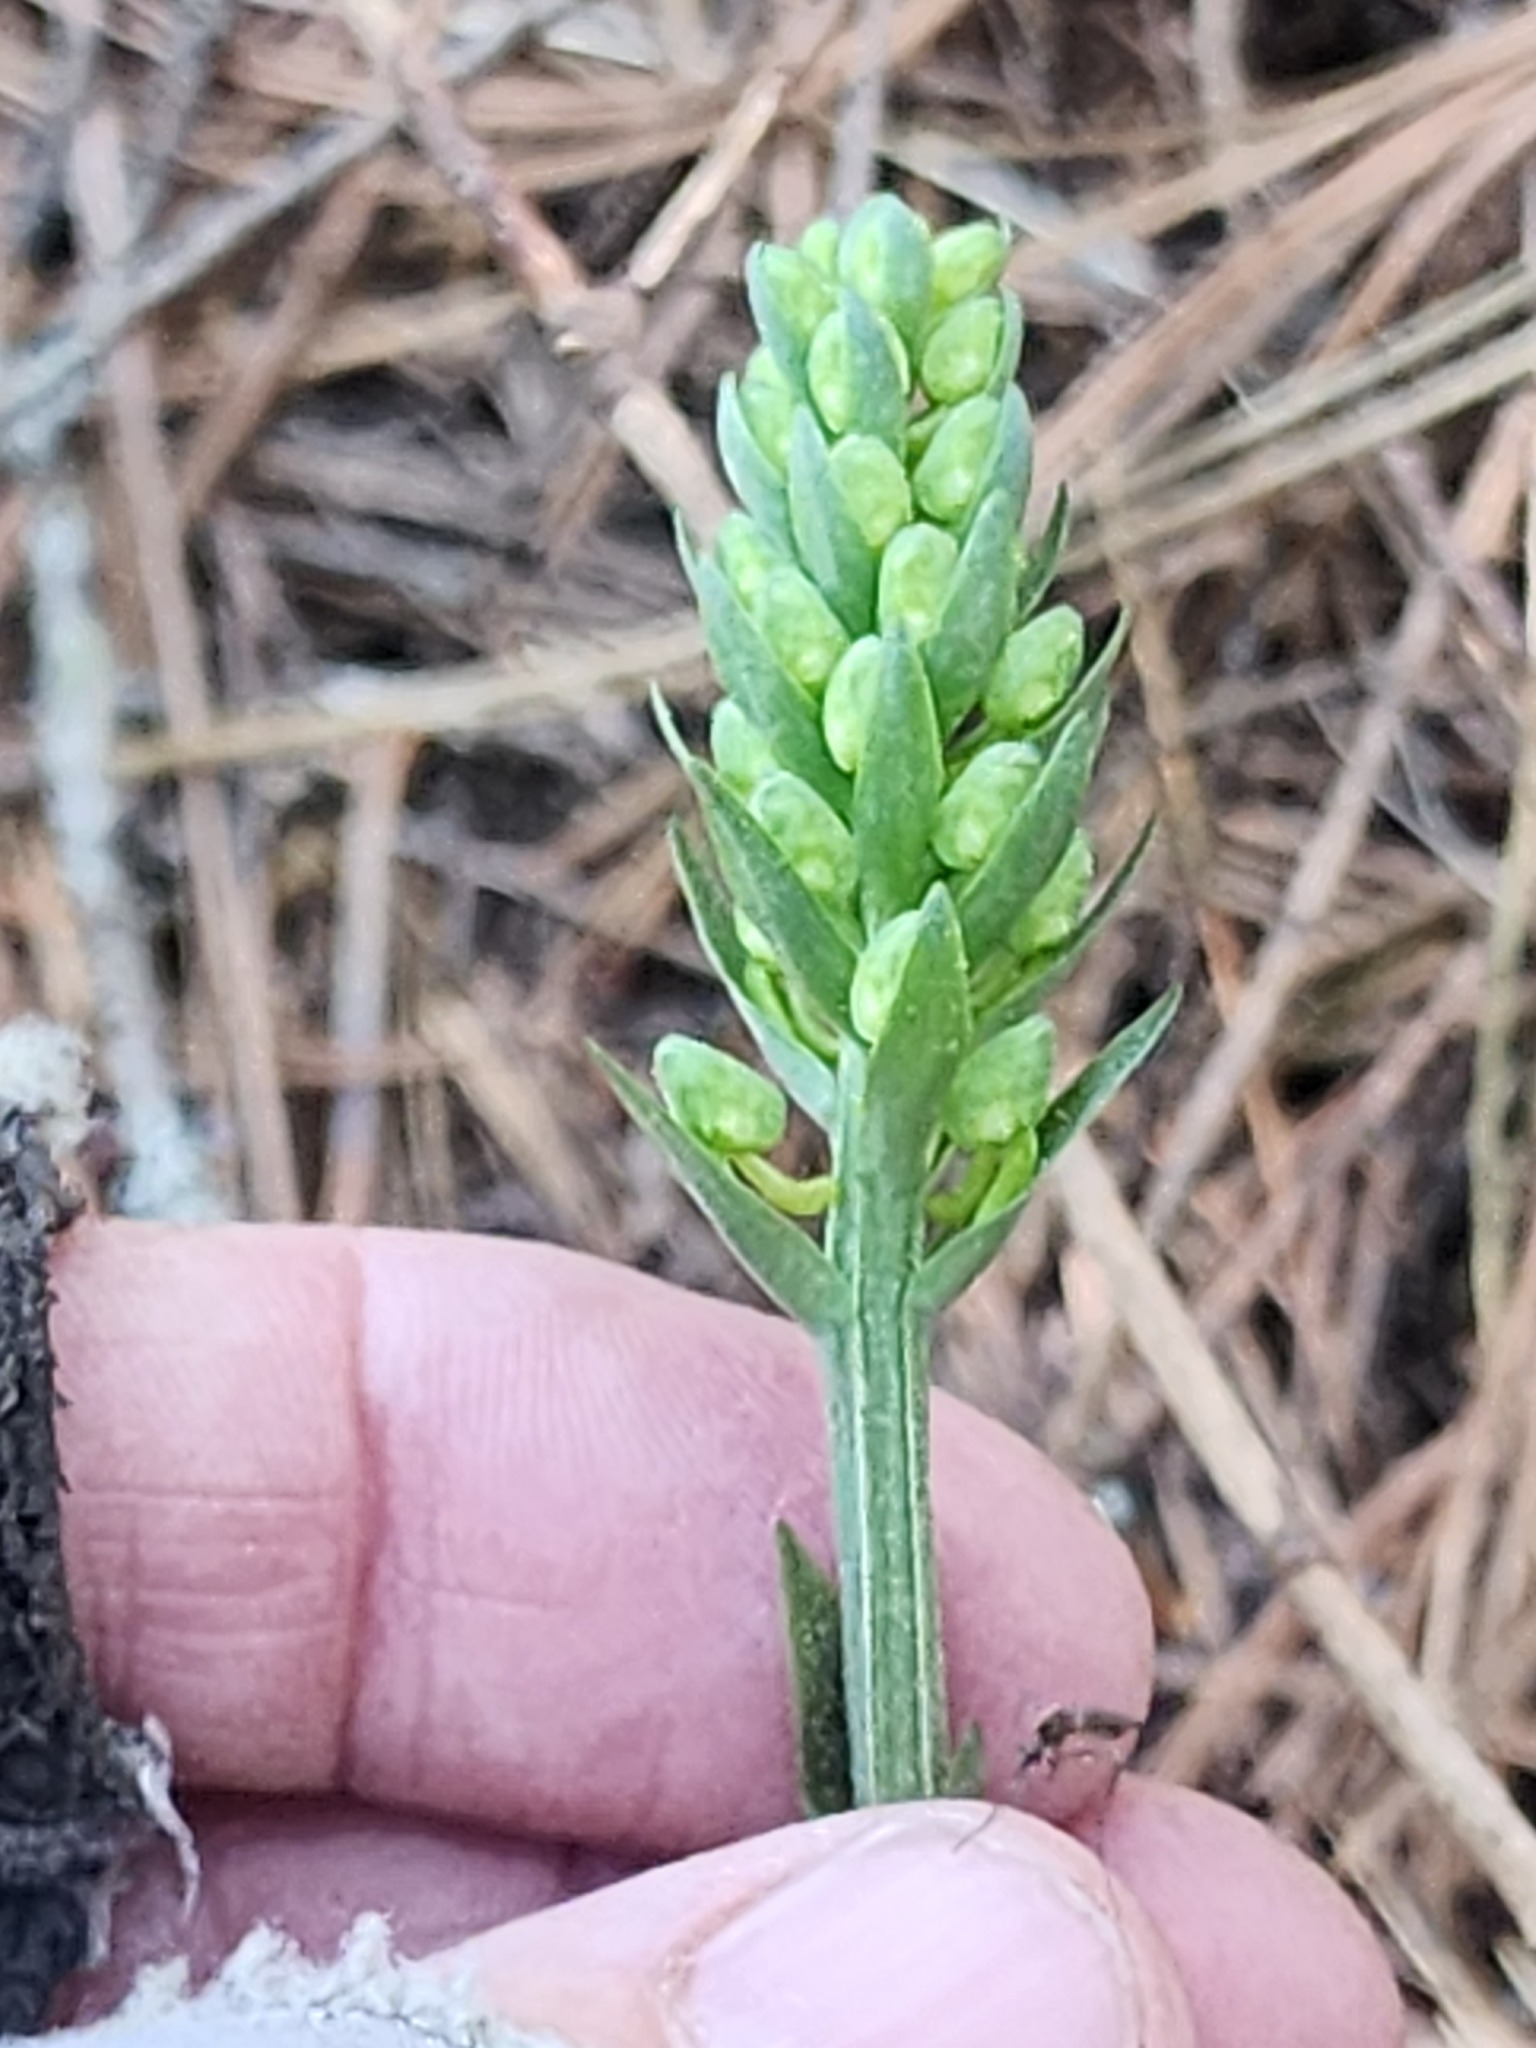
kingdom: Plantae
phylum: Tracheophyta
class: Liliopsida
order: Asparagales
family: Orchidaceae
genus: Platanthera
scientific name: Platanthera orbiculata
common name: Large round-leaved orchid
